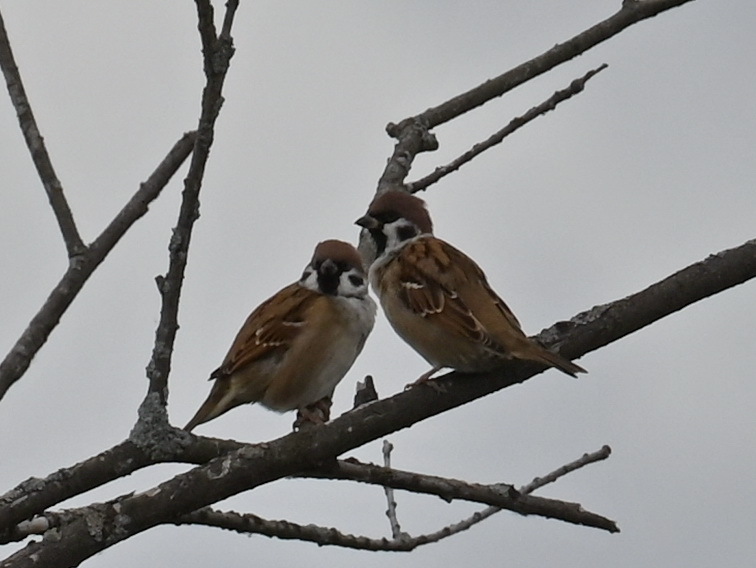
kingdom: Animalia
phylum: Chordata
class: Aves
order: Passeriformes
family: Passeridae
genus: Passer
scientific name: Passer montanus
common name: Eurasian tree sparrow
